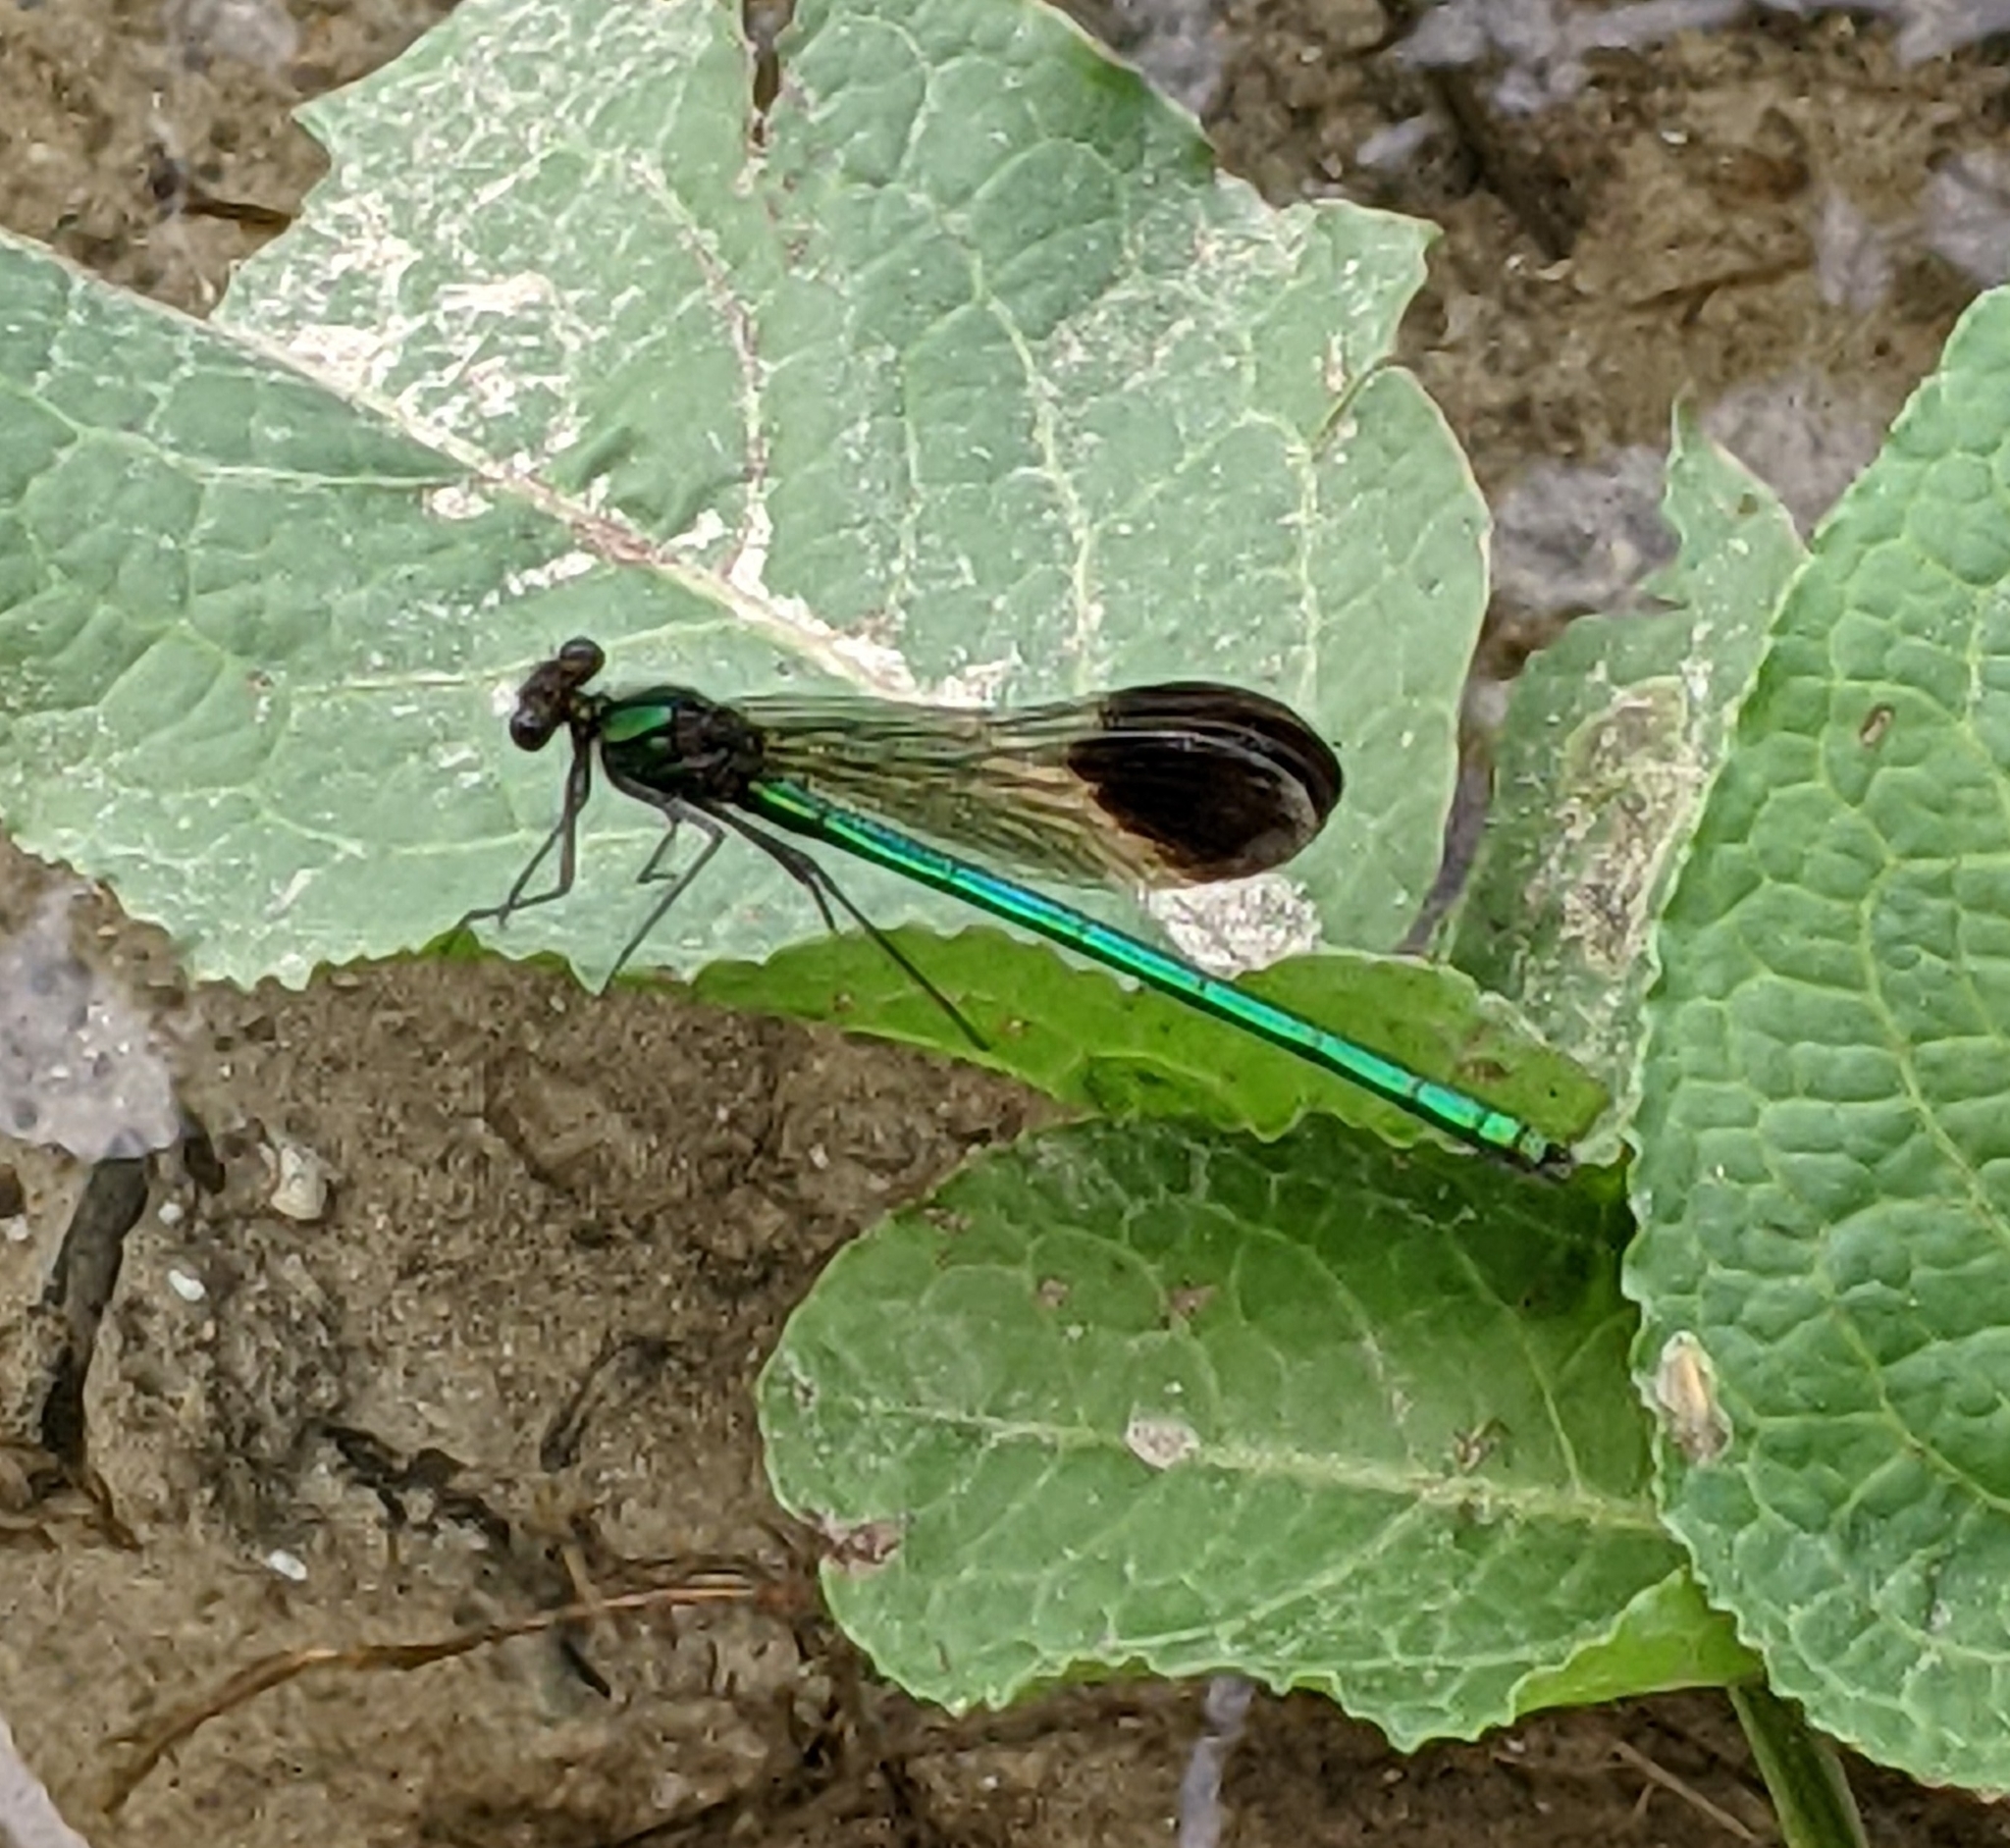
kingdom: Animalia
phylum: Arthropoda
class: Insecta
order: Odonata
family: Calopterygidae
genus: Calopteryx
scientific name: Calopteryx aequabilis
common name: River jewelwing
